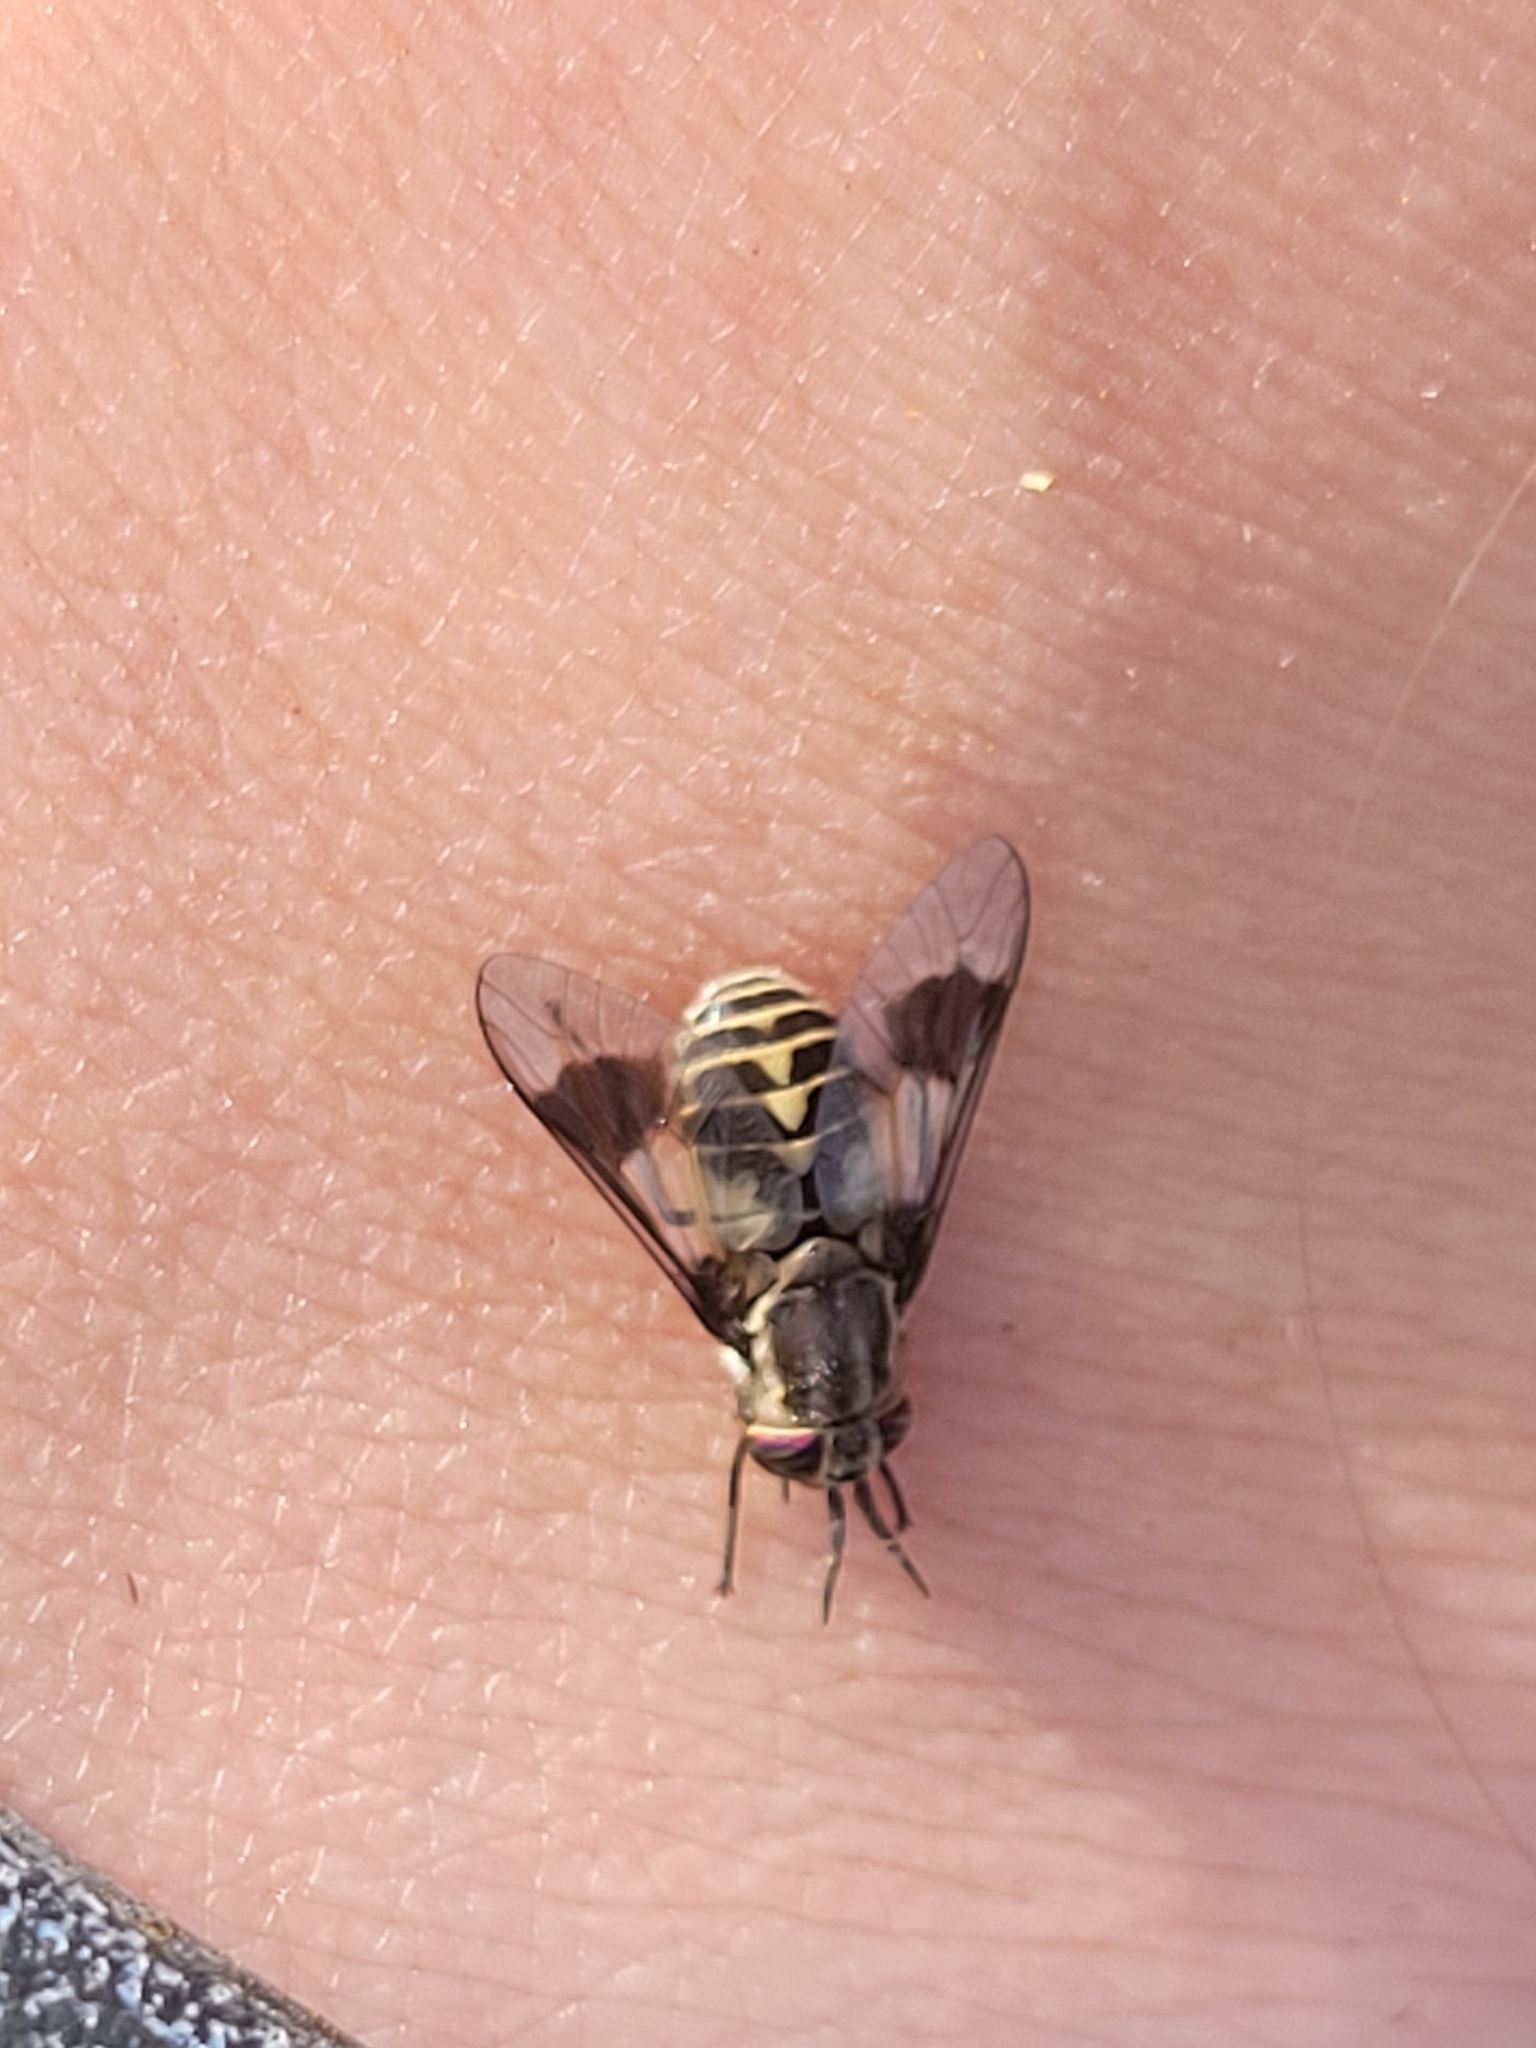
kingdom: Animalia
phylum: Arthropoda
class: Insecta
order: Diptera
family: Tabanidae
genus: Chrysops
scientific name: Chrysops aestuans
